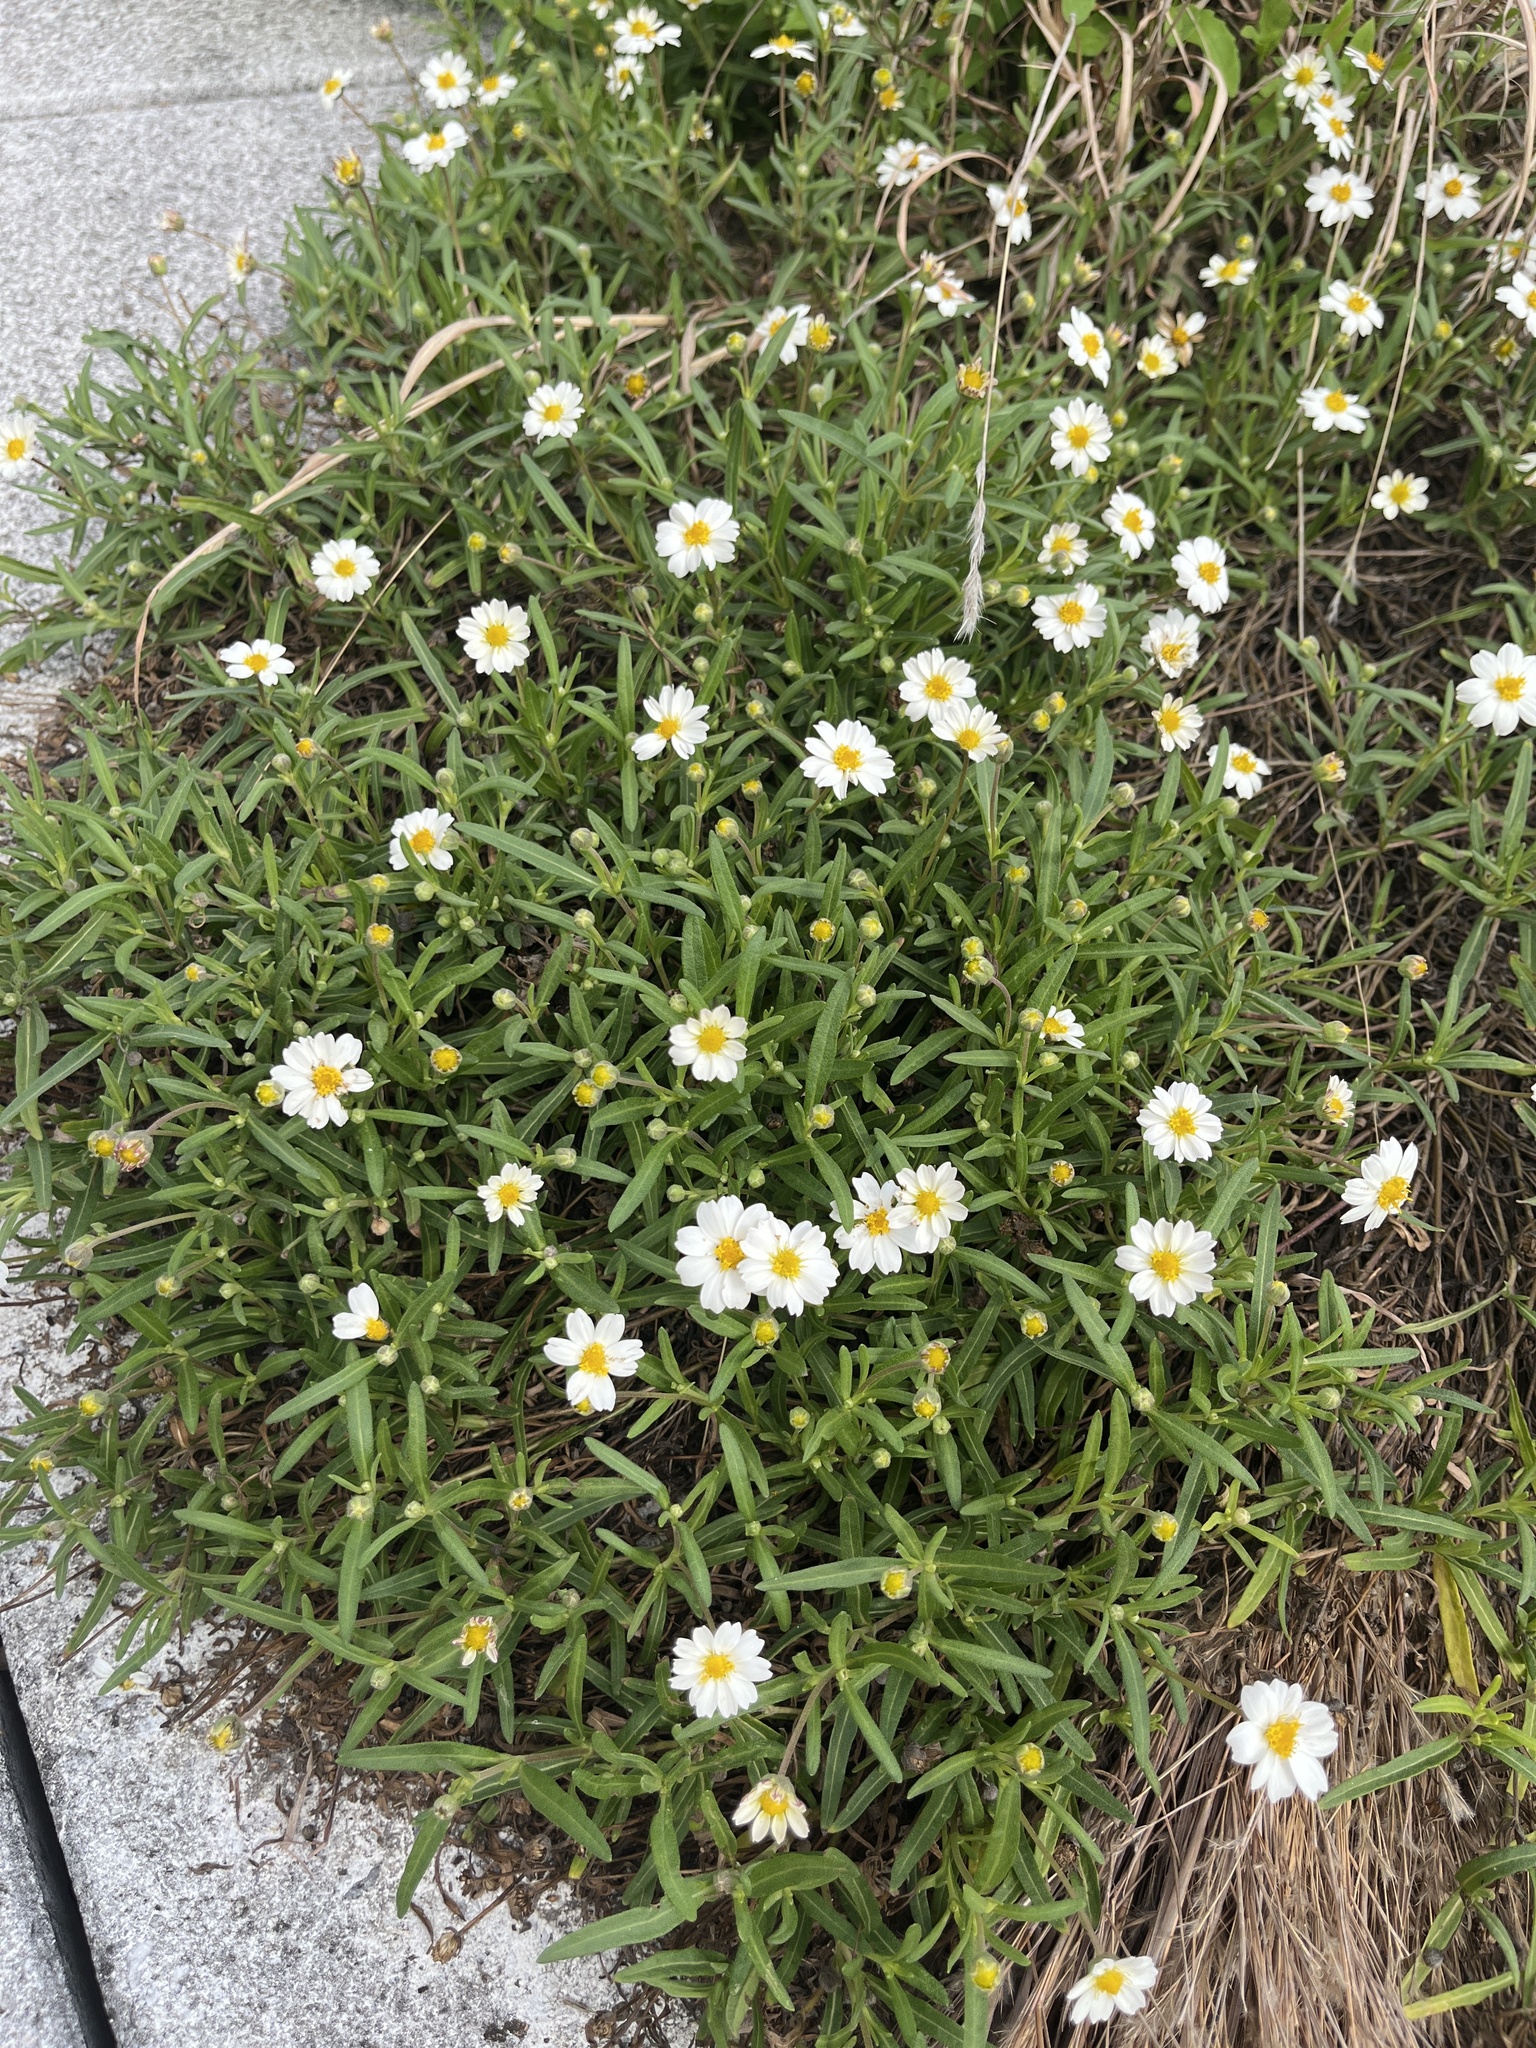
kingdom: Plantae
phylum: Tracheophyta
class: Magnoliopsida
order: Asterales
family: Asteraceae
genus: Melampodium
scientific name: Melampodium leucanthum
